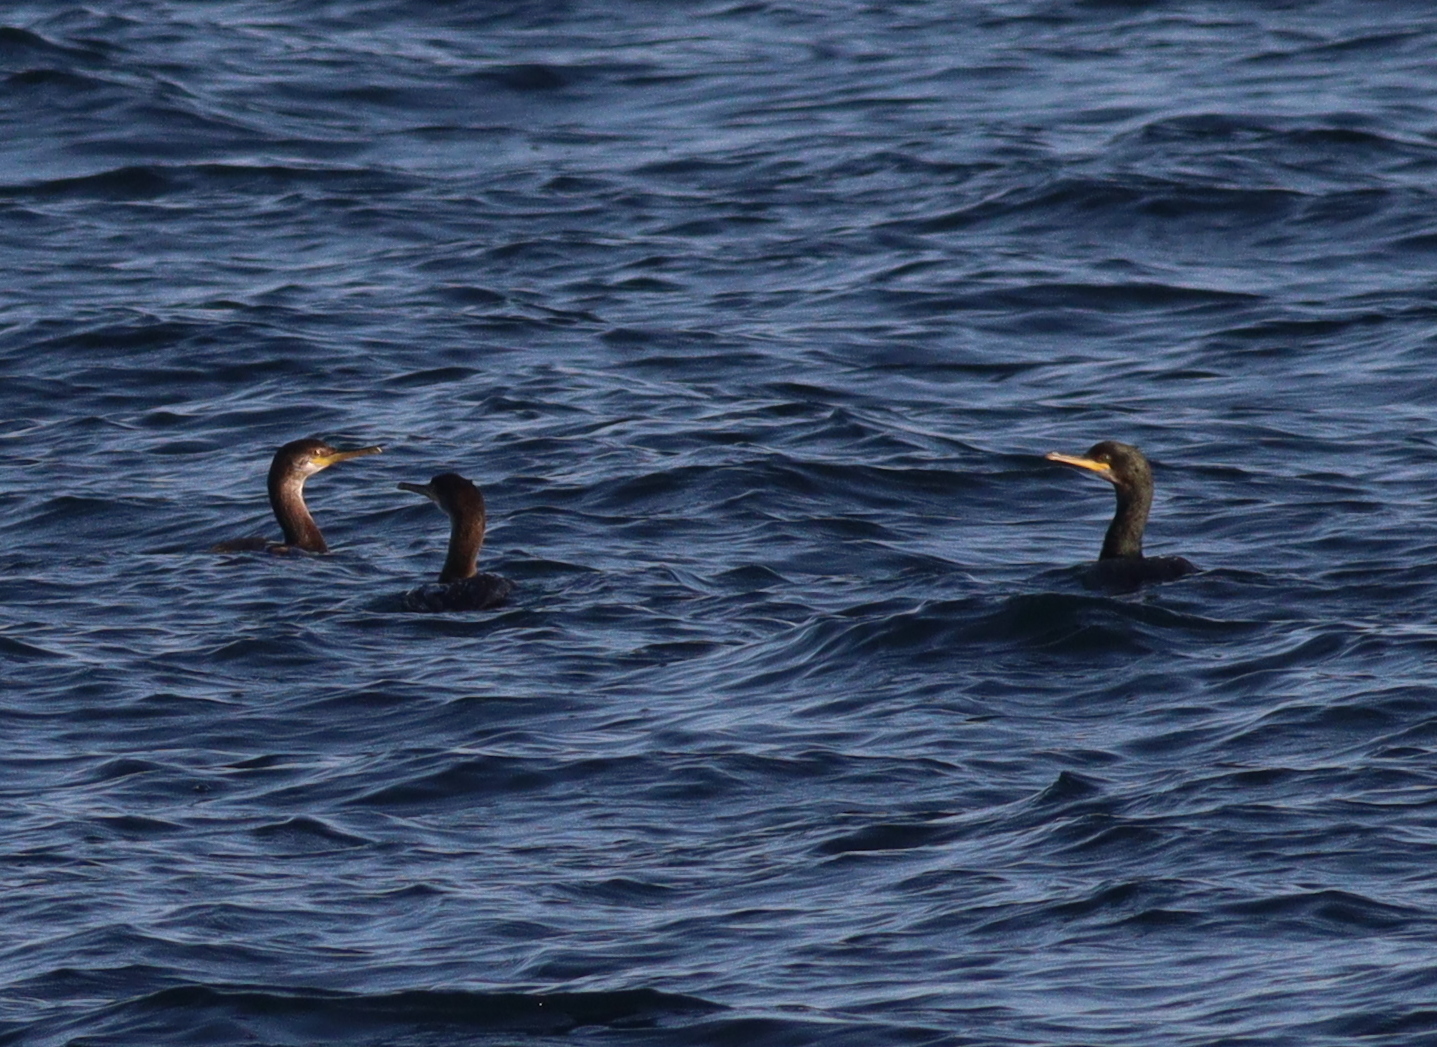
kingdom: Animalia
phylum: Chordata
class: Aves
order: Suliformes
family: Phalacrocoracidae
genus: Phalacrocorax
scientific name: Phalacrocorax aristotelis
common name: European shag
